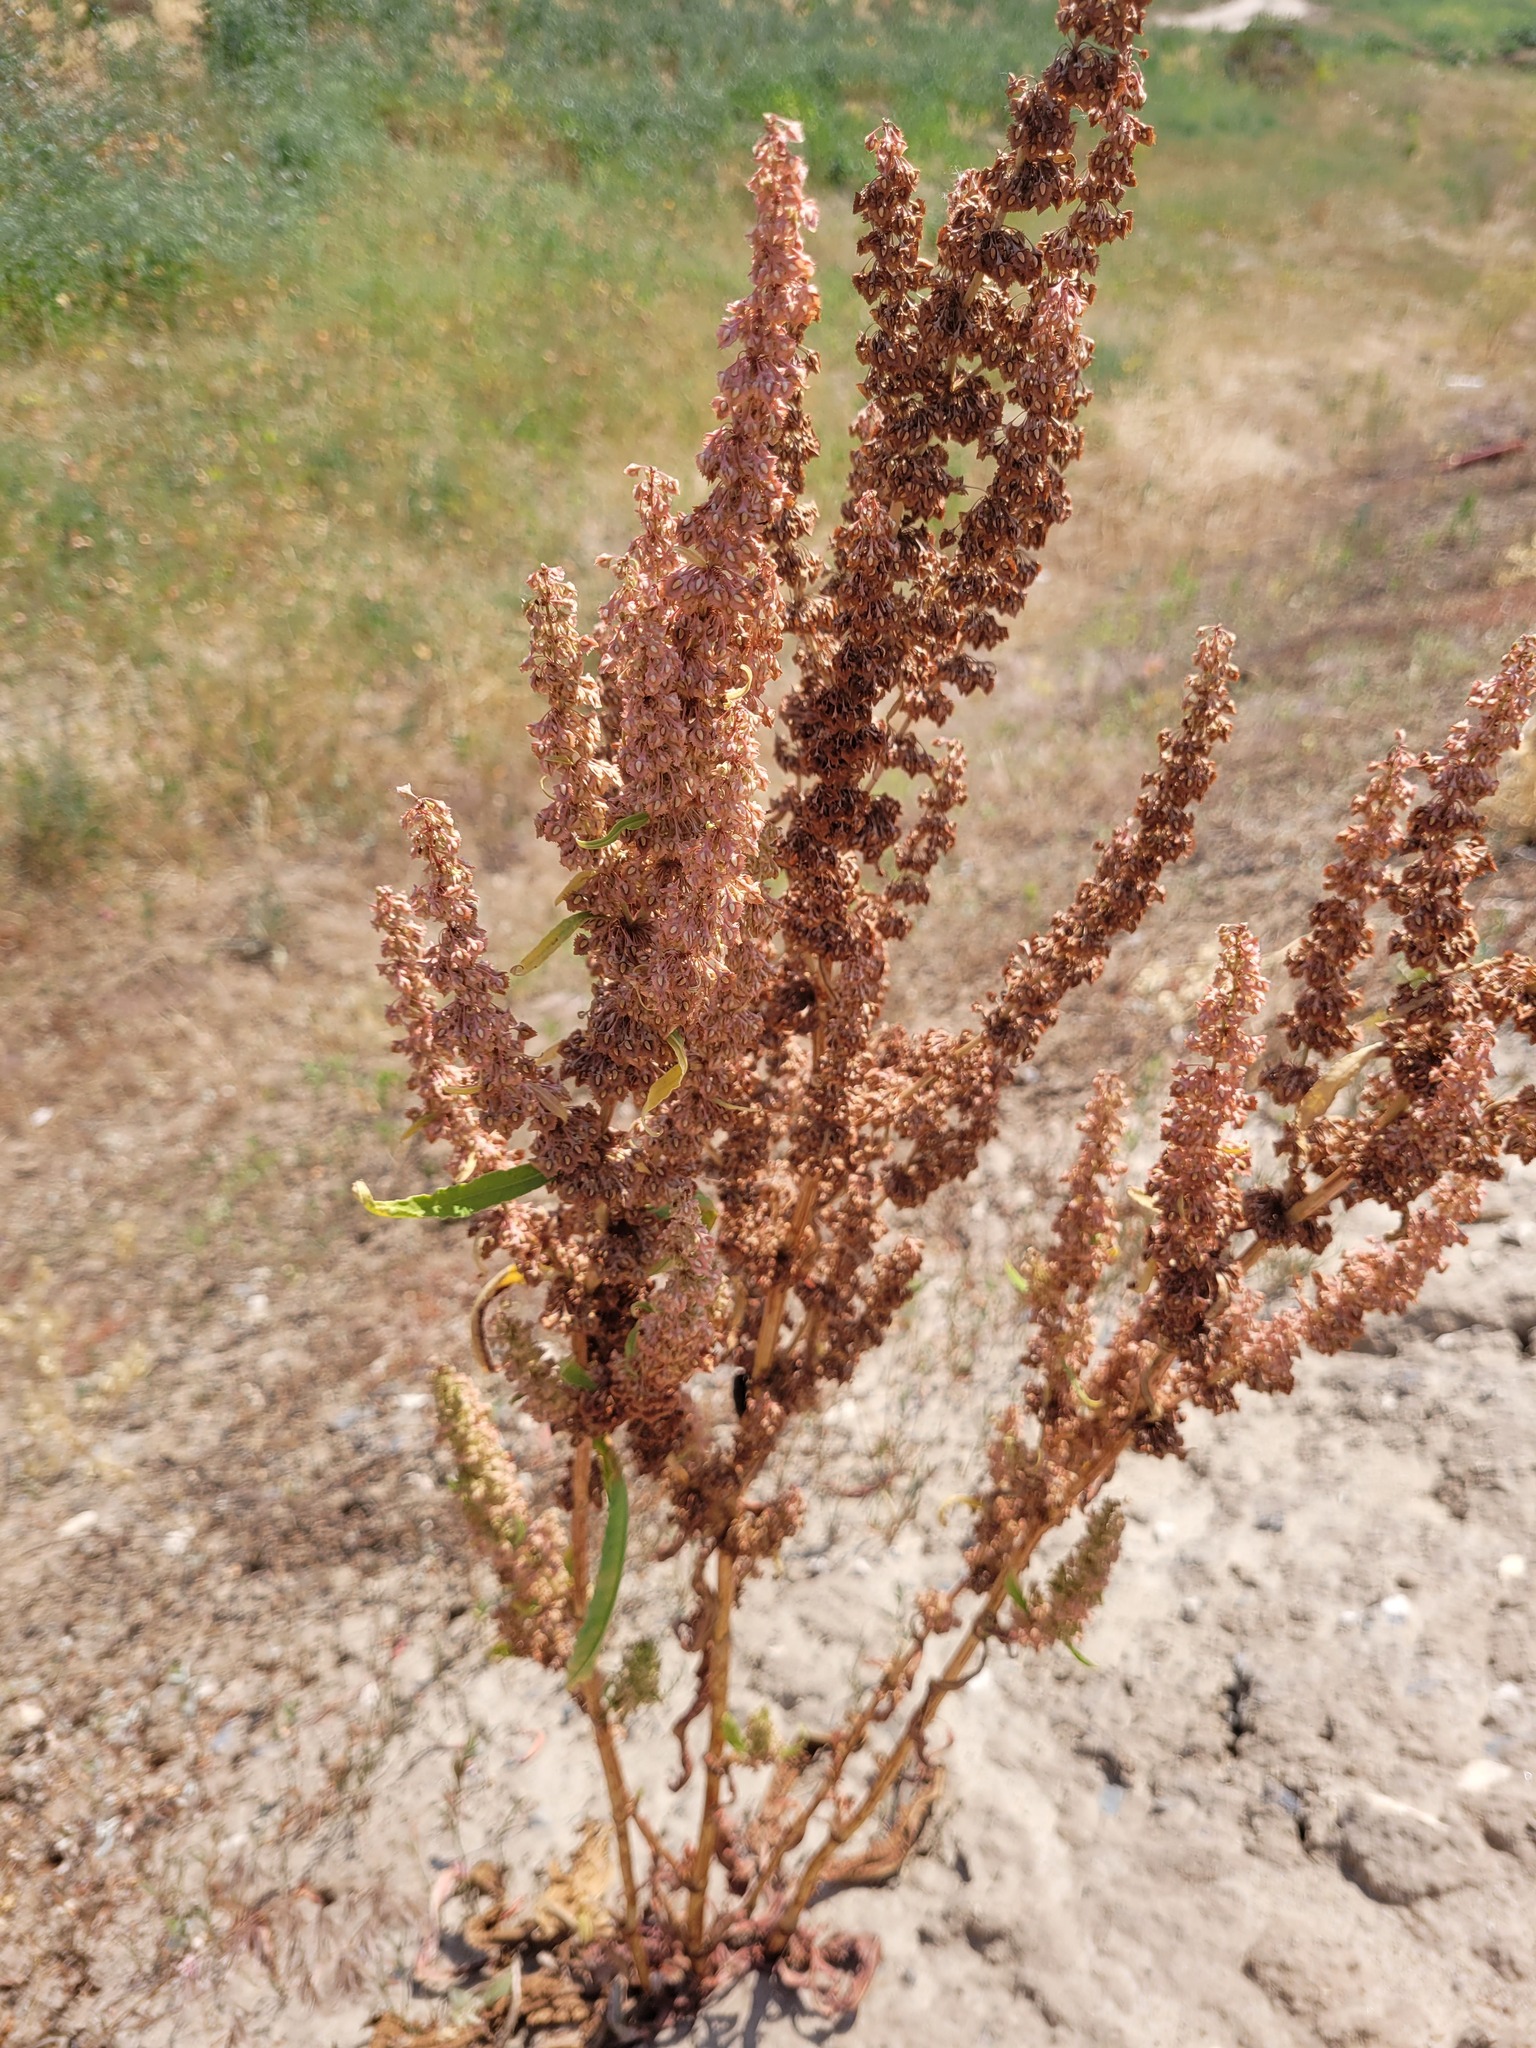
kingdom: Plantae
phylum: Tracheophyta
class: Magnoliopsida
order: Caryophyllales
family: Polygonaceae
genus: Rumex
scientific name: Rumex stenophyllus
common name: Narrowleaf dock
